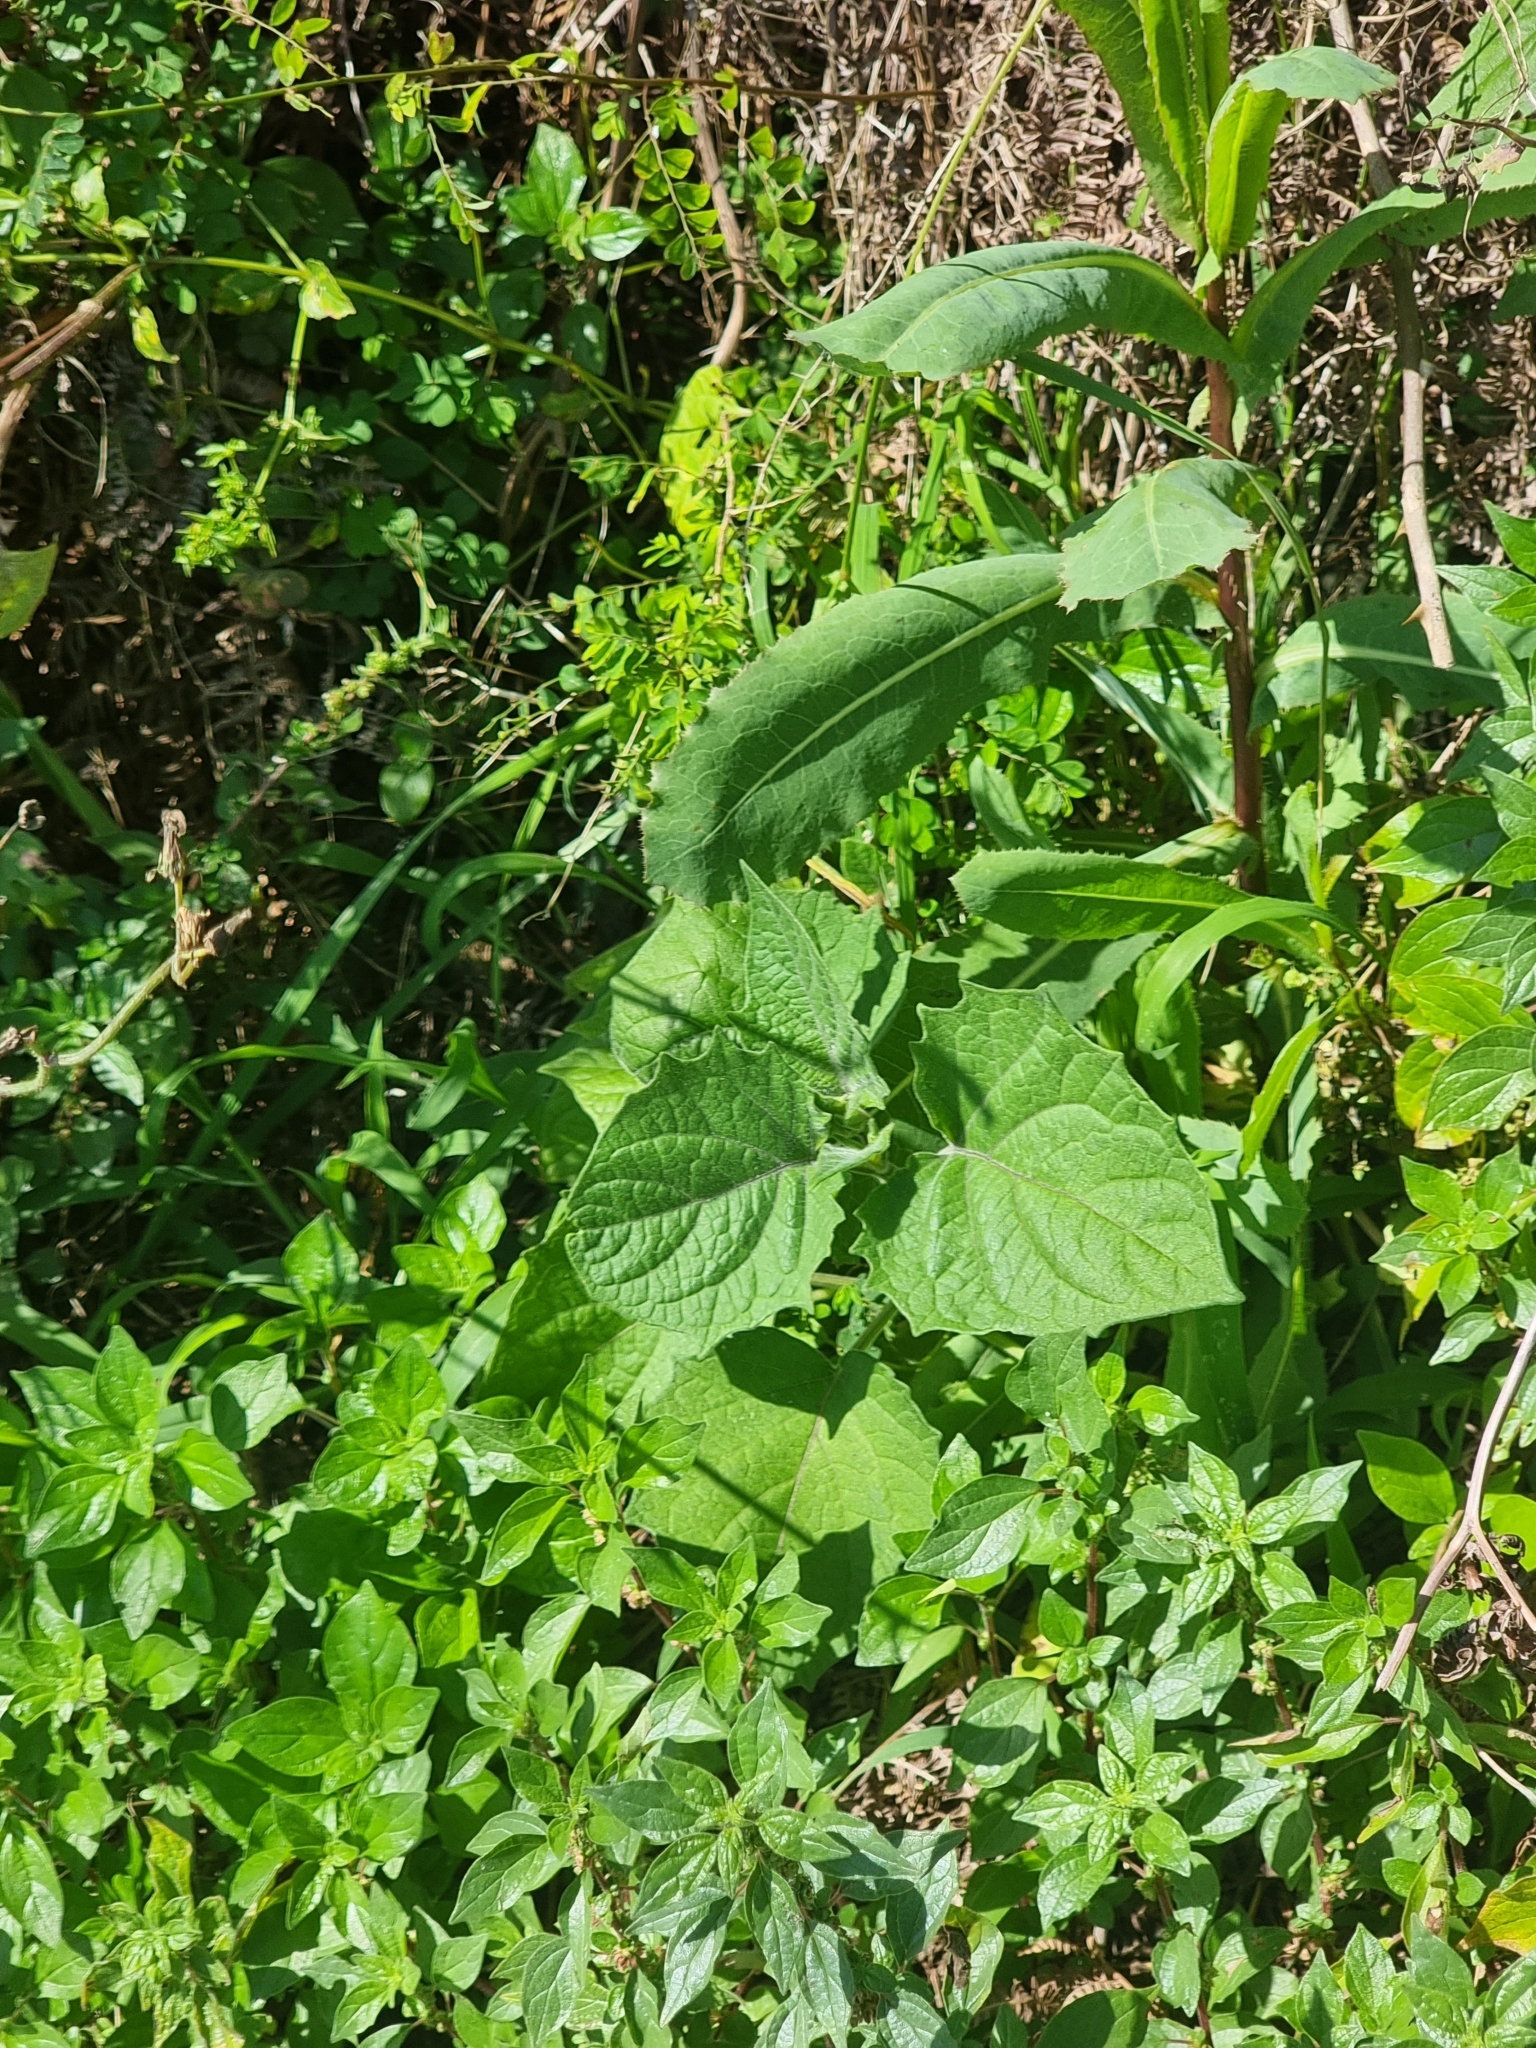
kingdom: Plantae
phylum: Tracheophyta
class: Magnoliopsida
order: Solanales
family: Solanaceae
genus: Physalis
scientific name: Physalis peruviana
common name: Cape-gooseberry
